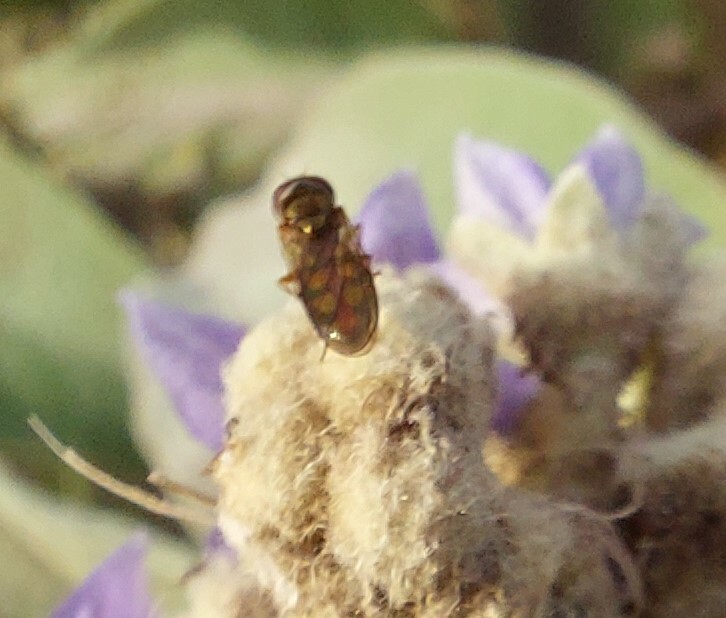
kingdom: Animalia
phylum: Arthropoda
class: Insecta
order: Diptera
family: Syrphidae
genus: Melanostoma
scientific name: Melanostoma fasciatum
